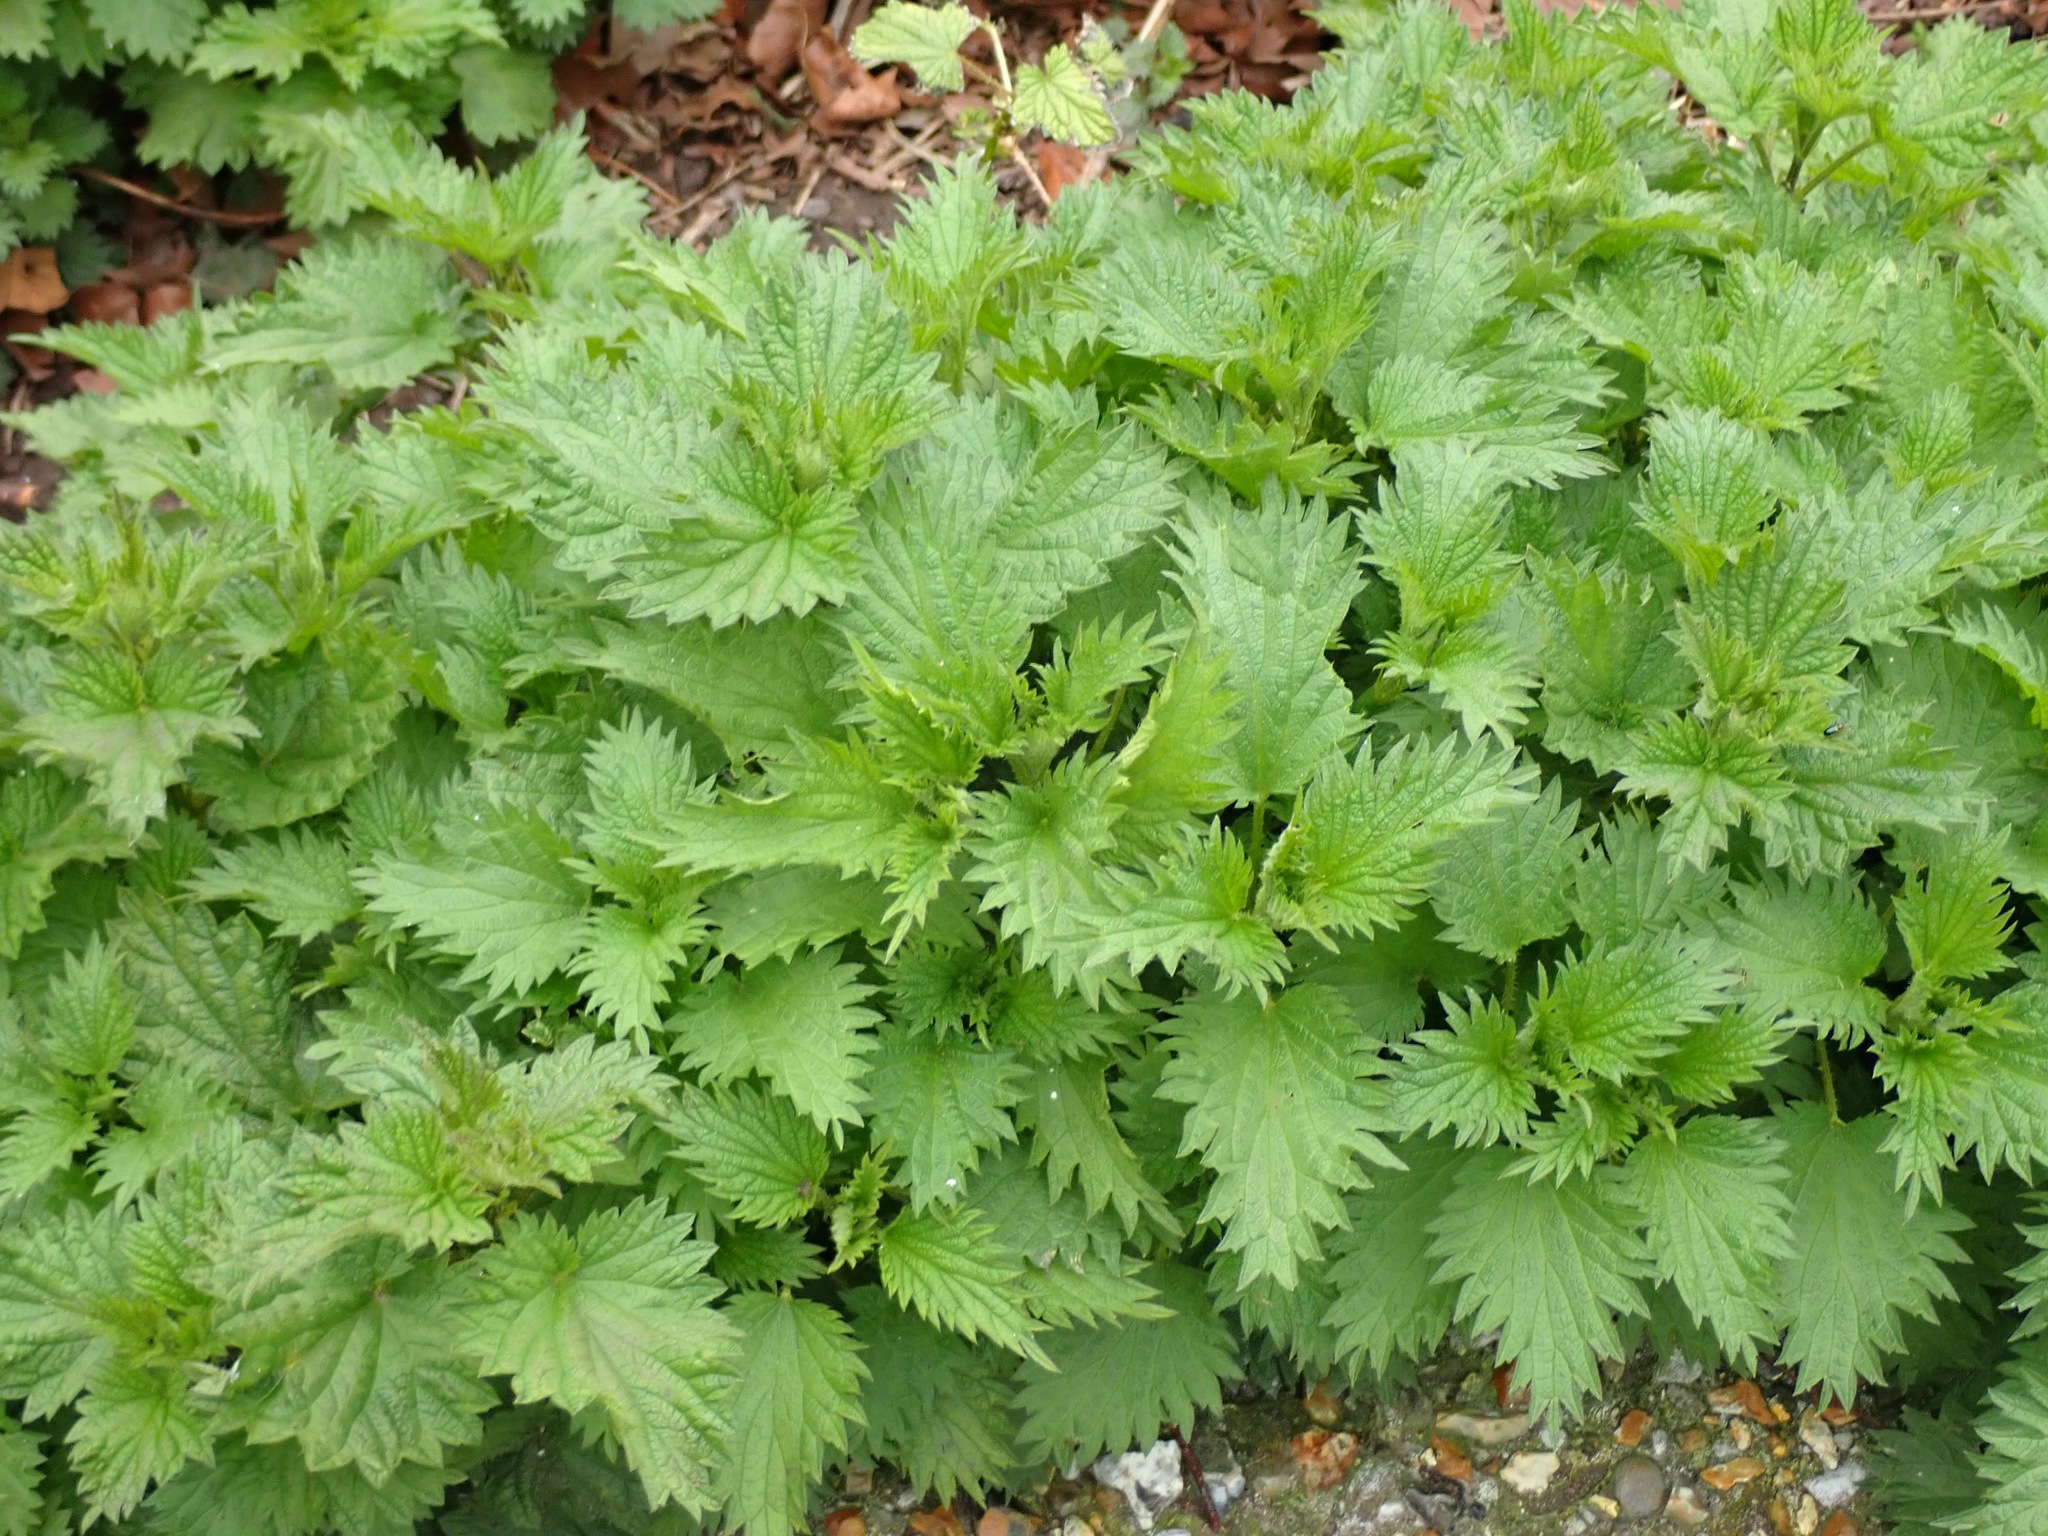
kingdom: Plantae
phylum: Tracheophyta
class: Magnoliopsida
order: Rosales
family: Urticaceae
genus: Urtica
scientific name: Urtica dioica
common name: Common nettle
